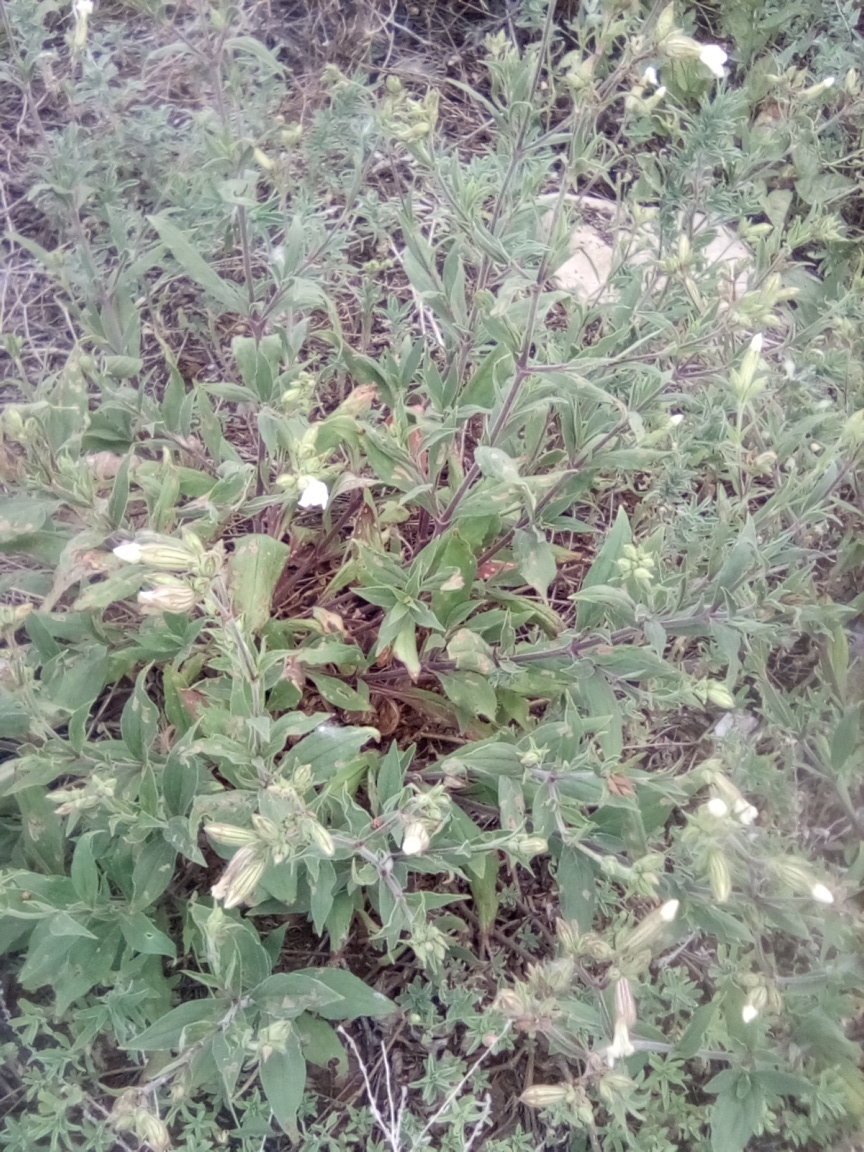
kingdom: Plantae
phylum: Tracheophyta
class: Magnoliopsida
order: Caryophyllales
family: Caryophyllaceae
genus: Silene
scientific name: Silene latifolia
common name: White campion
